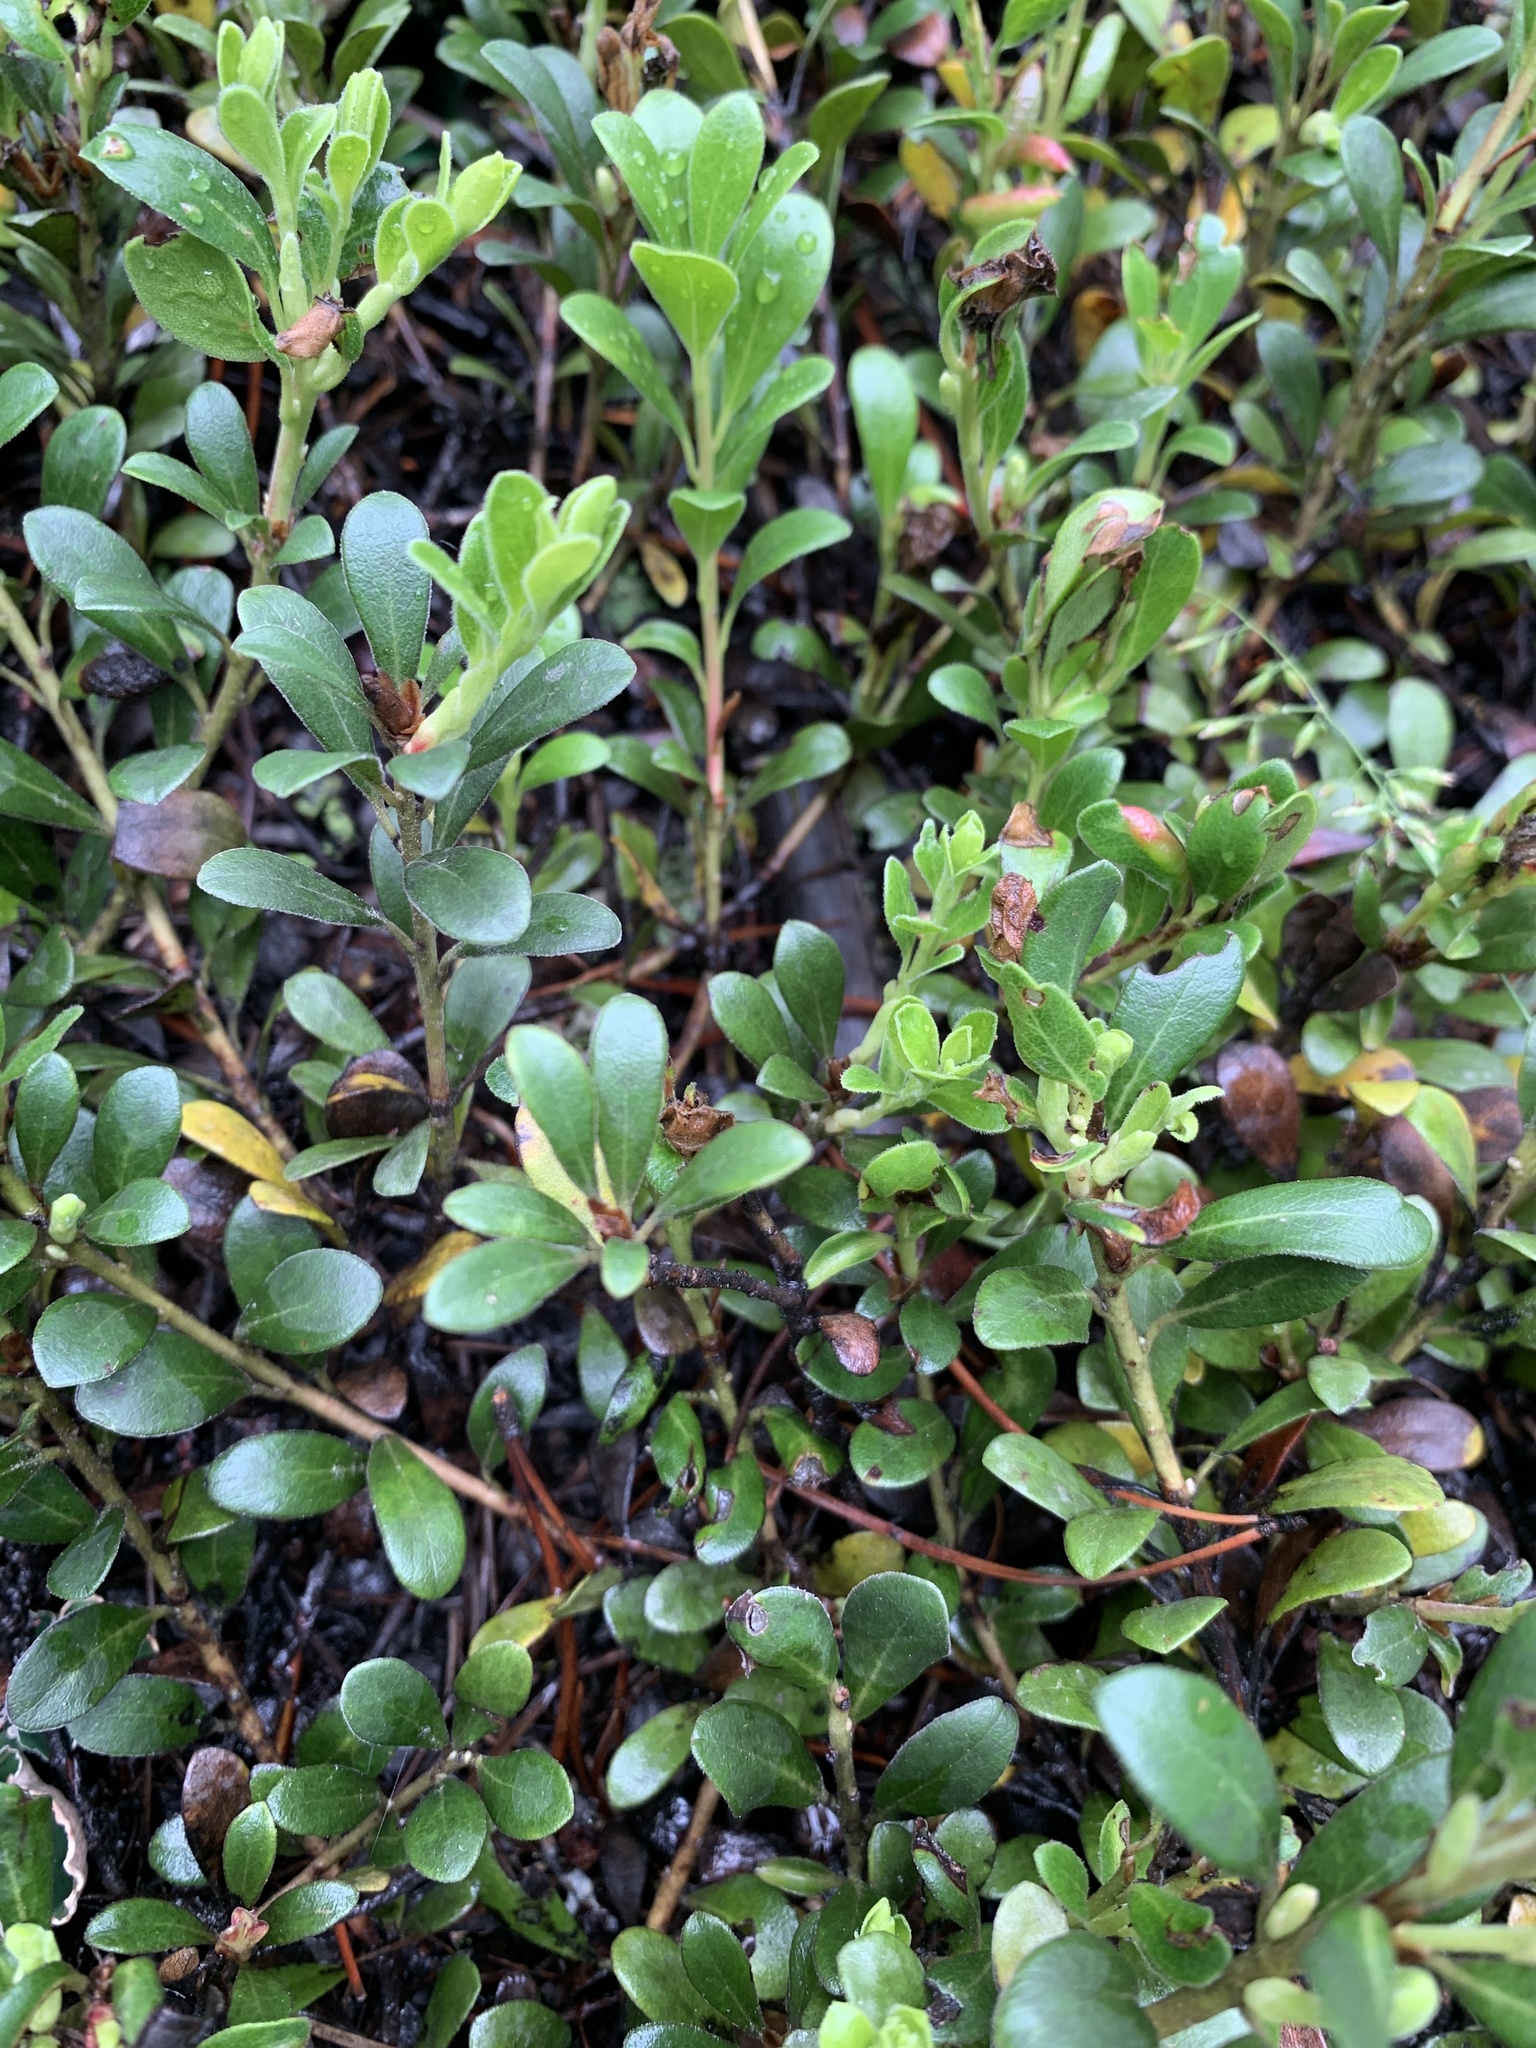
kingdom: Plantae
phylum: Tracheophyta
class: Magnoliopsida
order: Ericales
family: Ericaceae
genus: Arctostaphylos
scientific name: Arctostaphylos uva-ursi
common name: Bearberry
